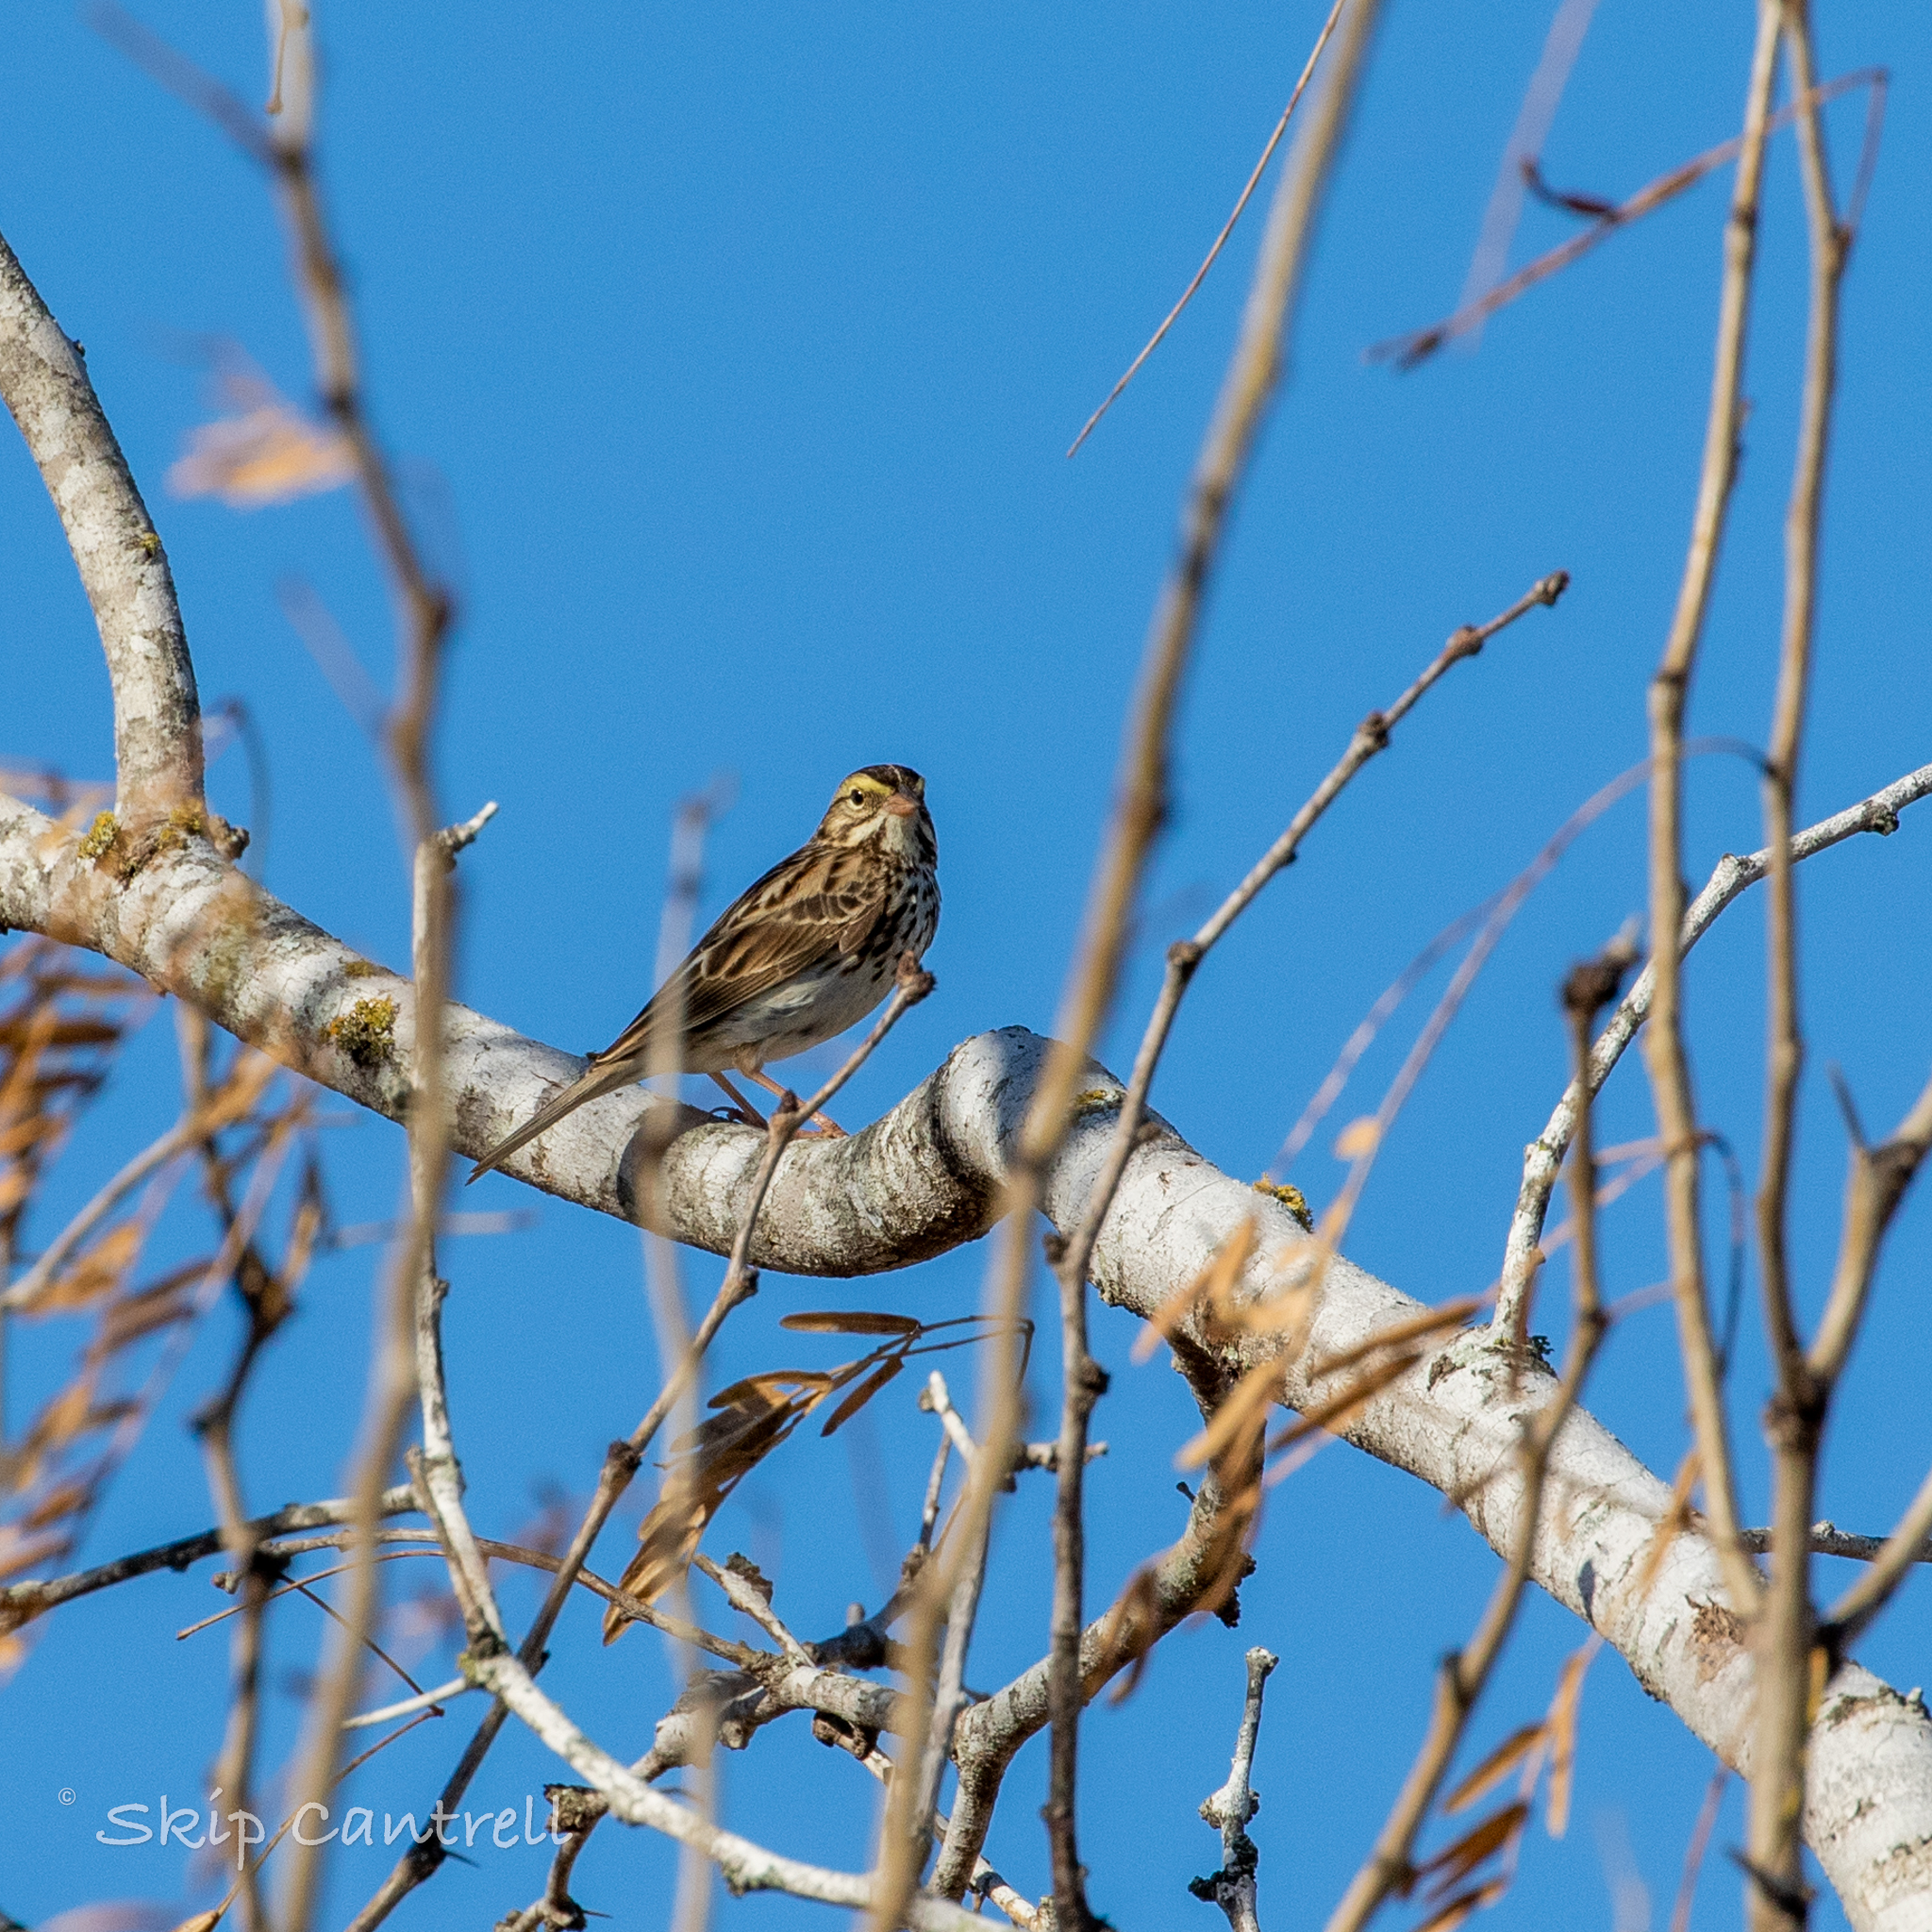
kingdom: Animalia
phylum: Chordata
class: Aves
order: Passeriformes
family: Passerellidae
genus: Passerculus
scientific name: Passerculus sandwichensis
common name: Savannah sparrow
